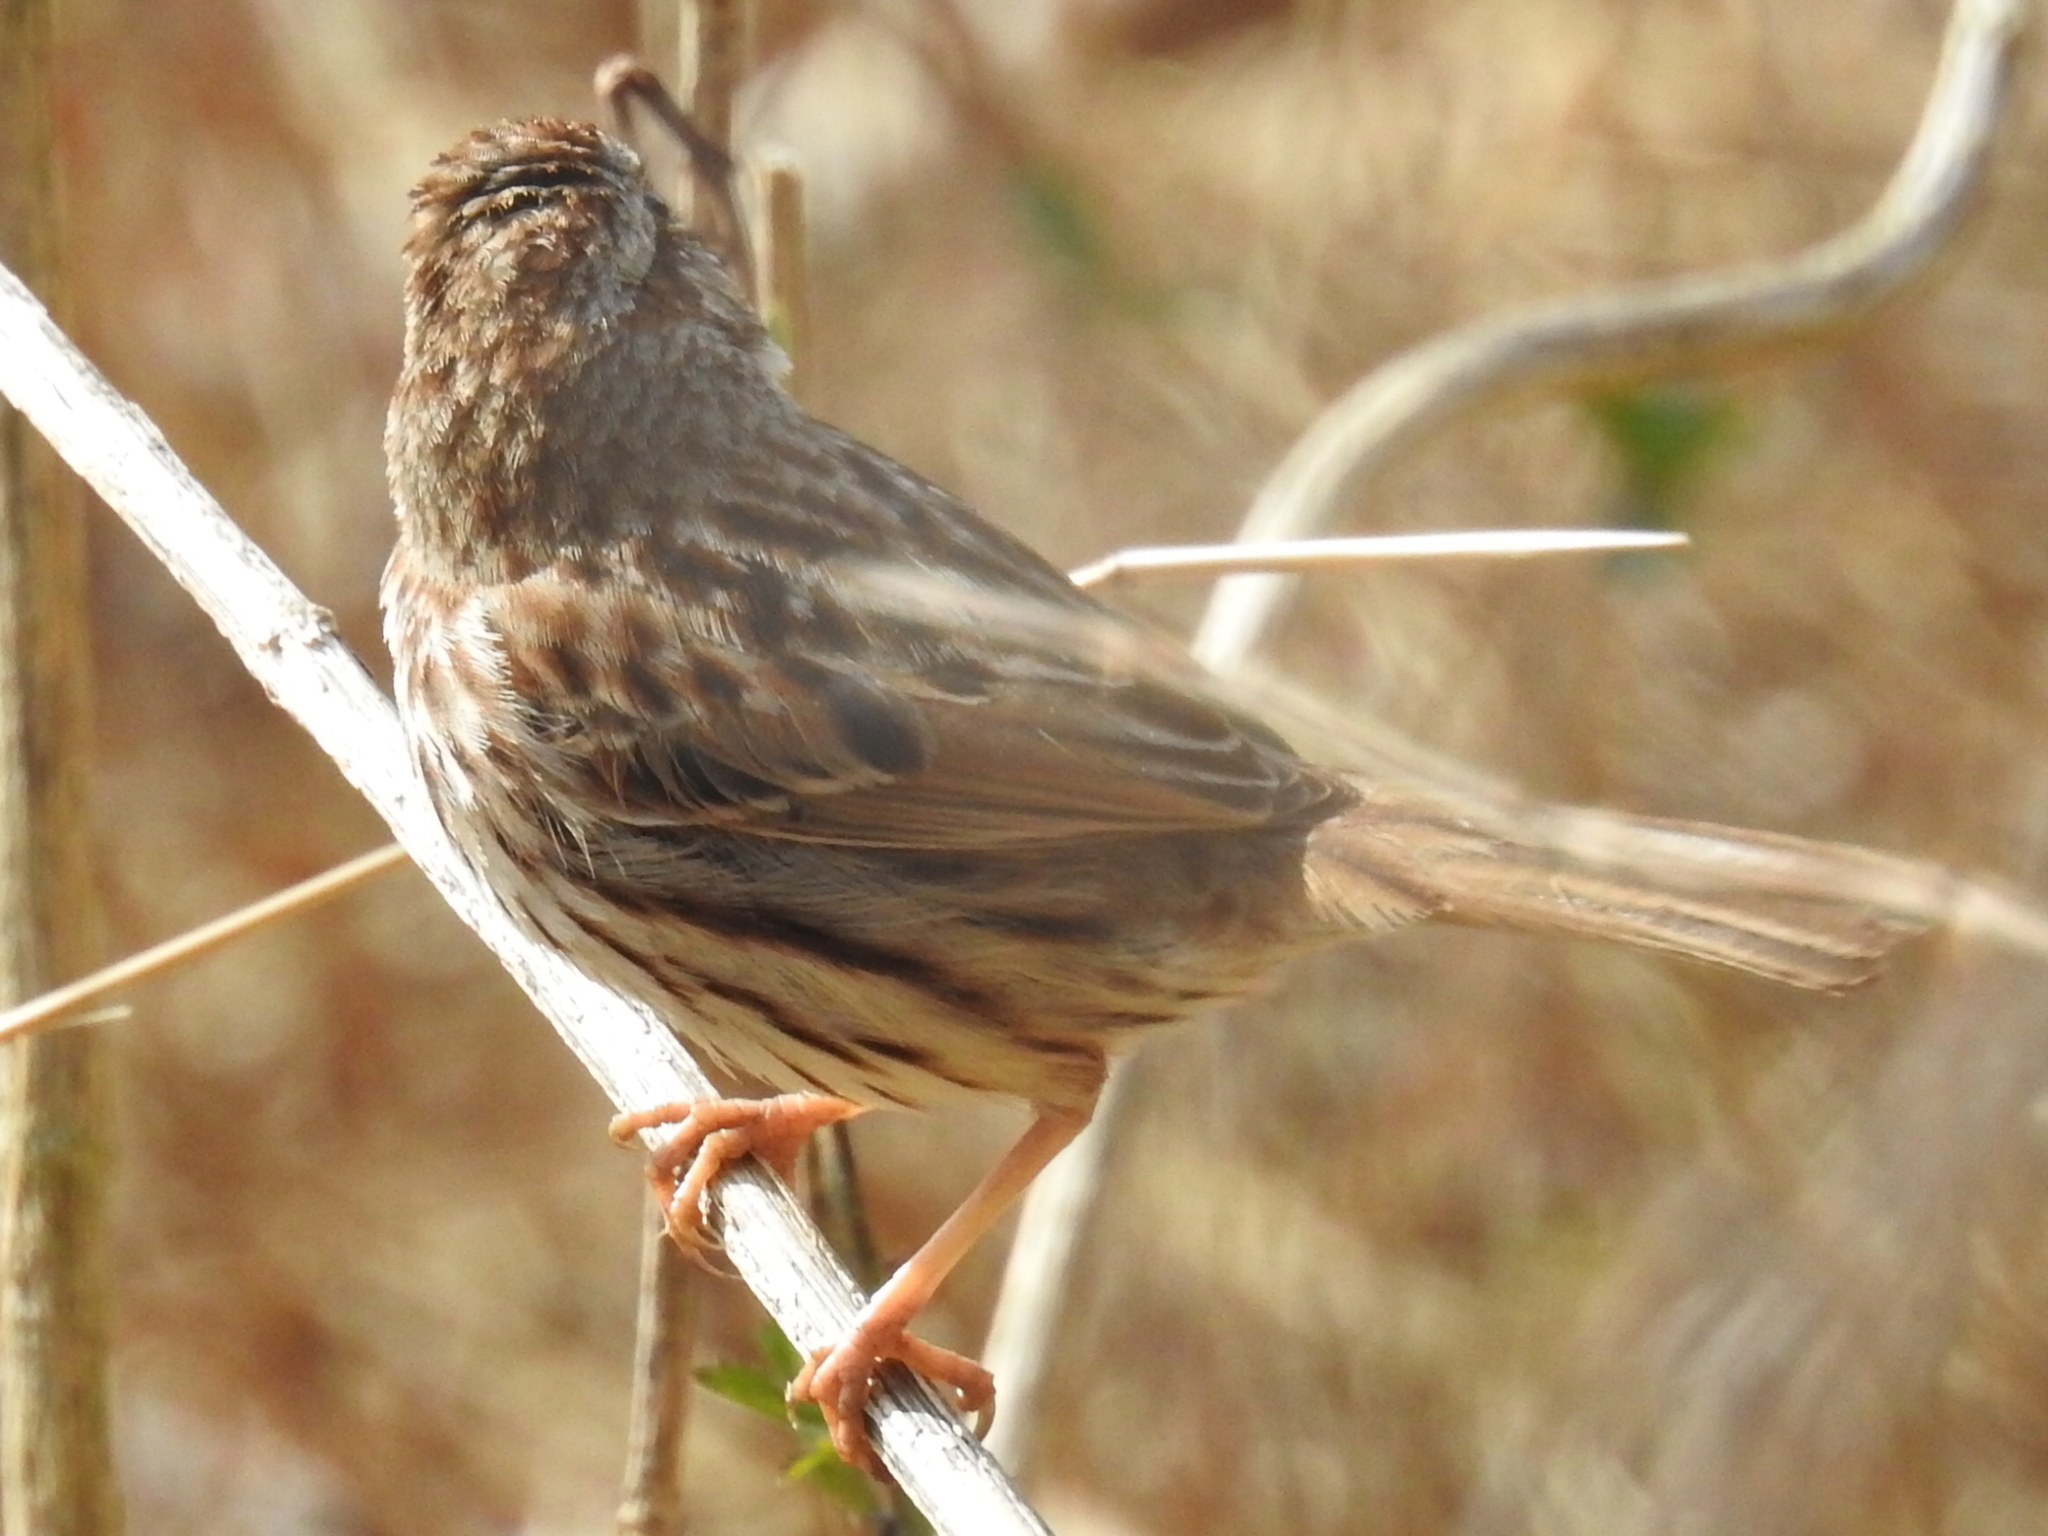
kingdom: Animalia
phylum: Chordata
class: Aves
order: Passeriformes
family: Passerellidae
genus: Melospiza
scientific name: Melospiza melodia
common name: Song sparrow
